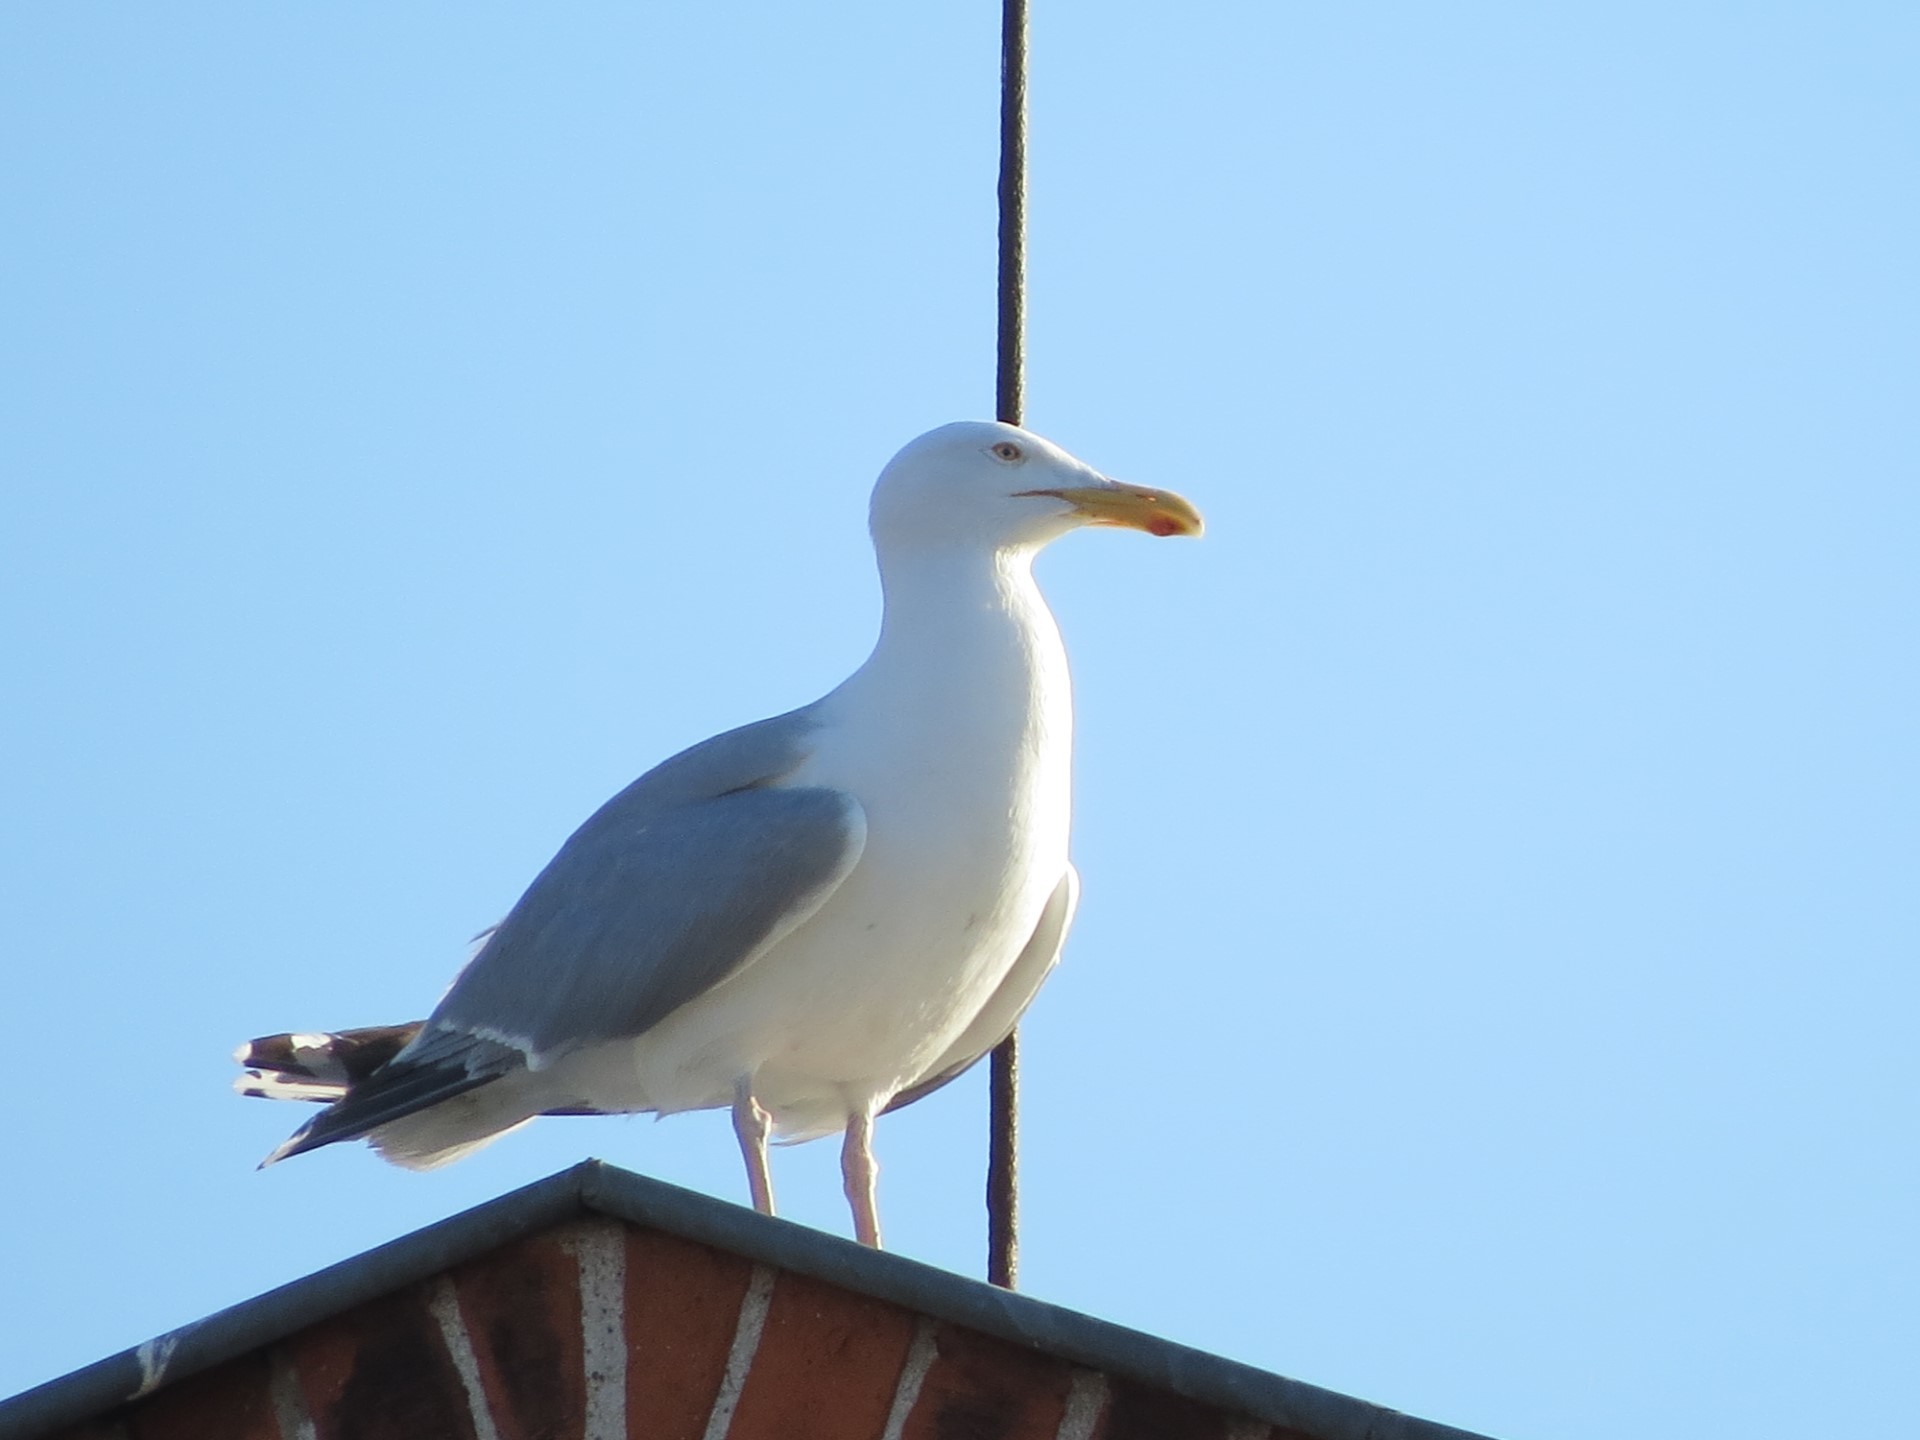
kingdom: Animalia
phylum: Chordata
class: Aves
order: Charadriiformes
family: Laridae
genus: Larus
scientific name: Larus argentatus
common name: Herring gull
